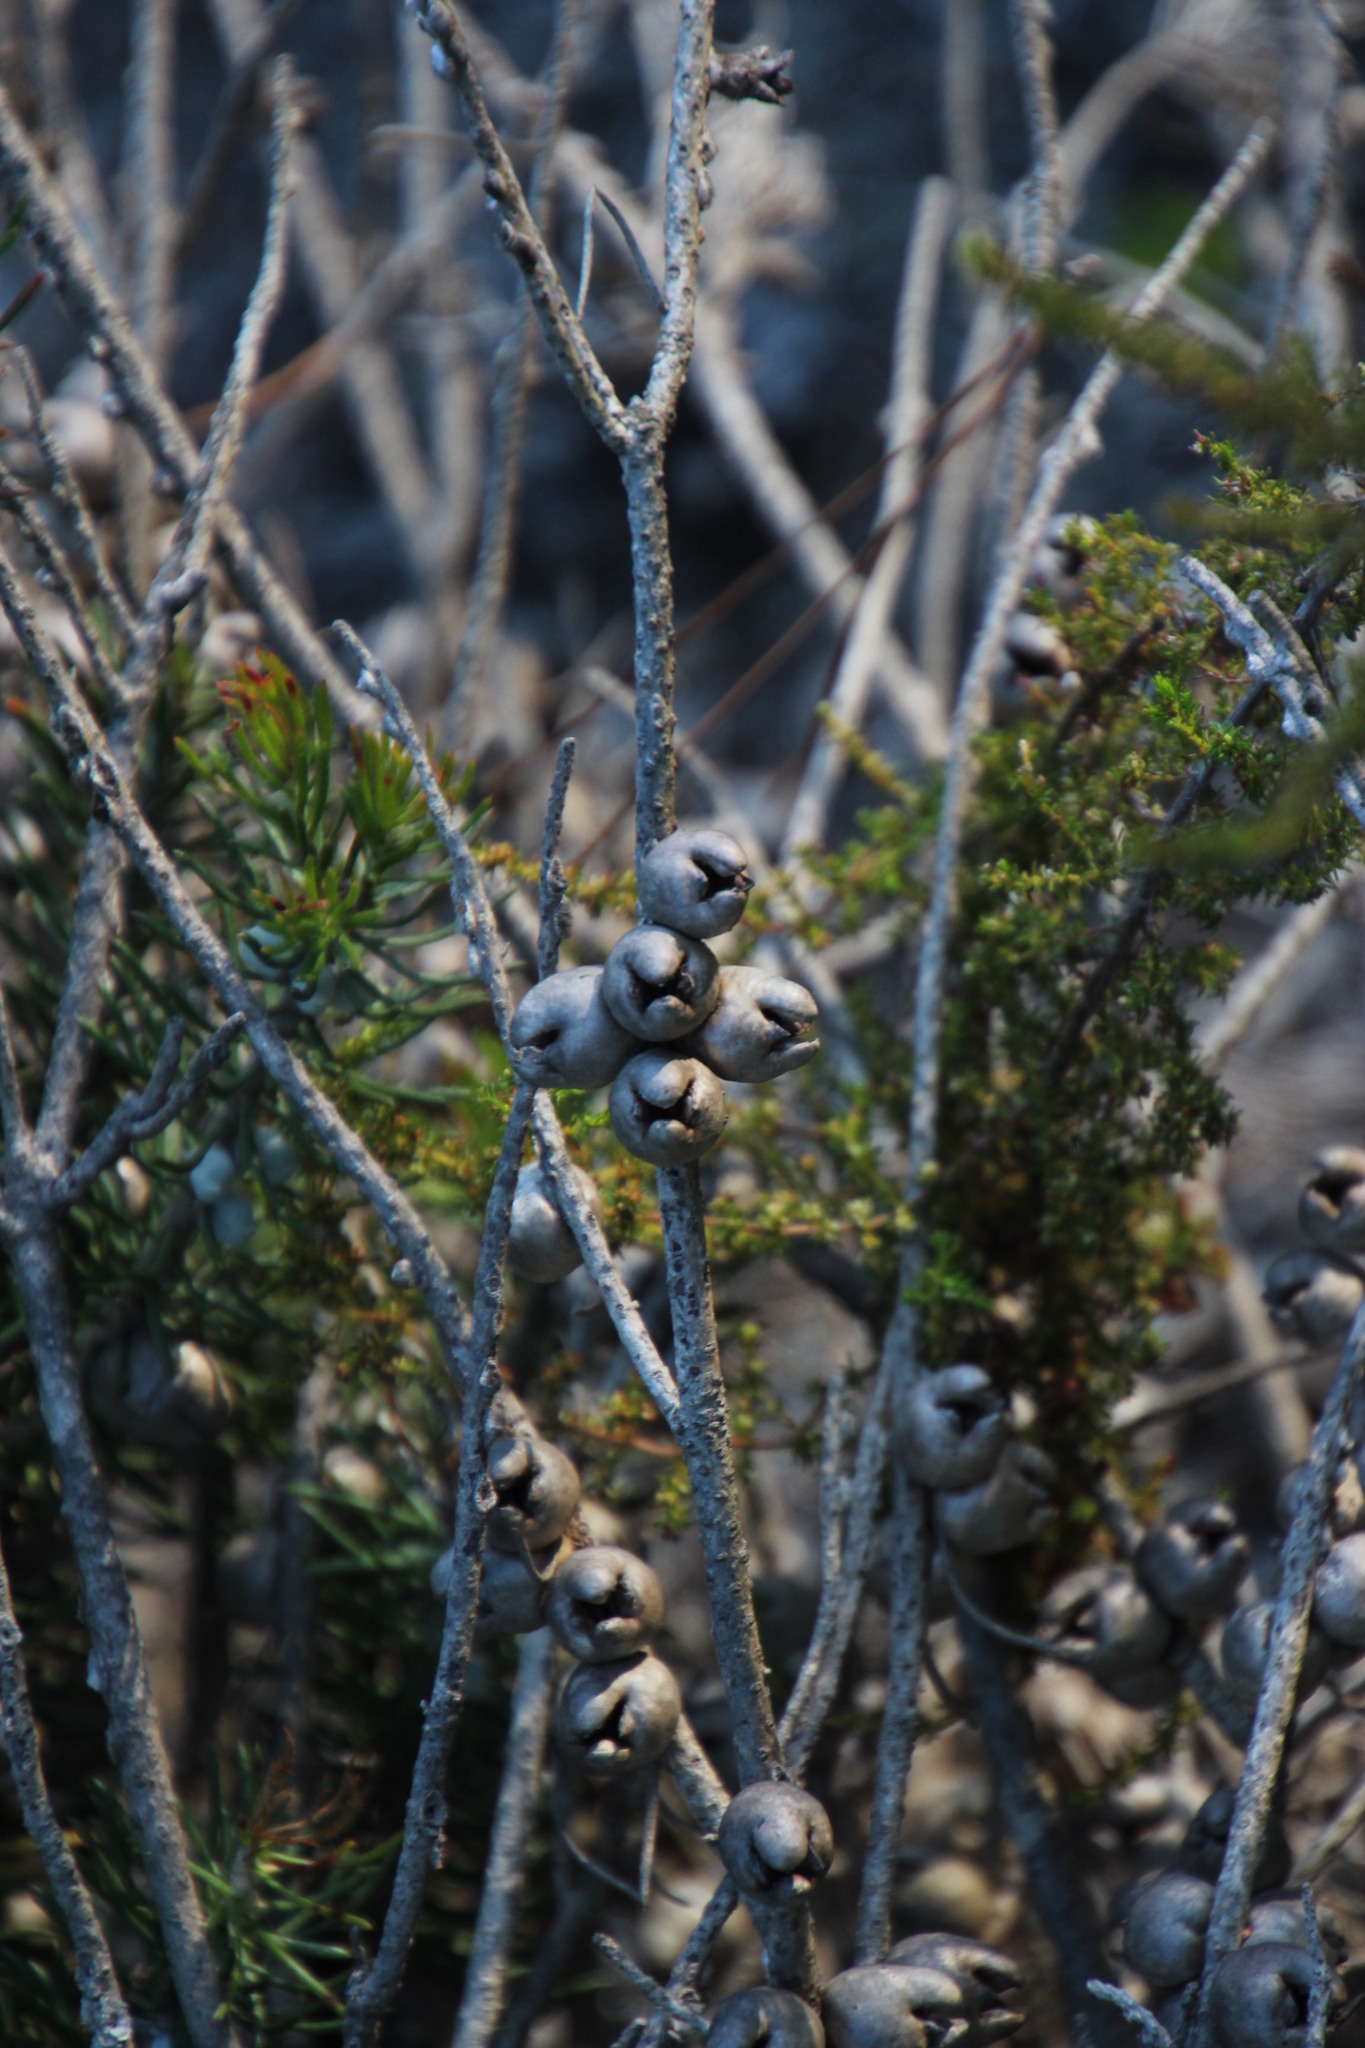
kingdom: Plantae
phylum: Tracheophyta
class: Magnoliopsida
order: Myrtales
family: Myrtaceae
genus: Melaleuca
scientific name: Melaleuca quadrifida
